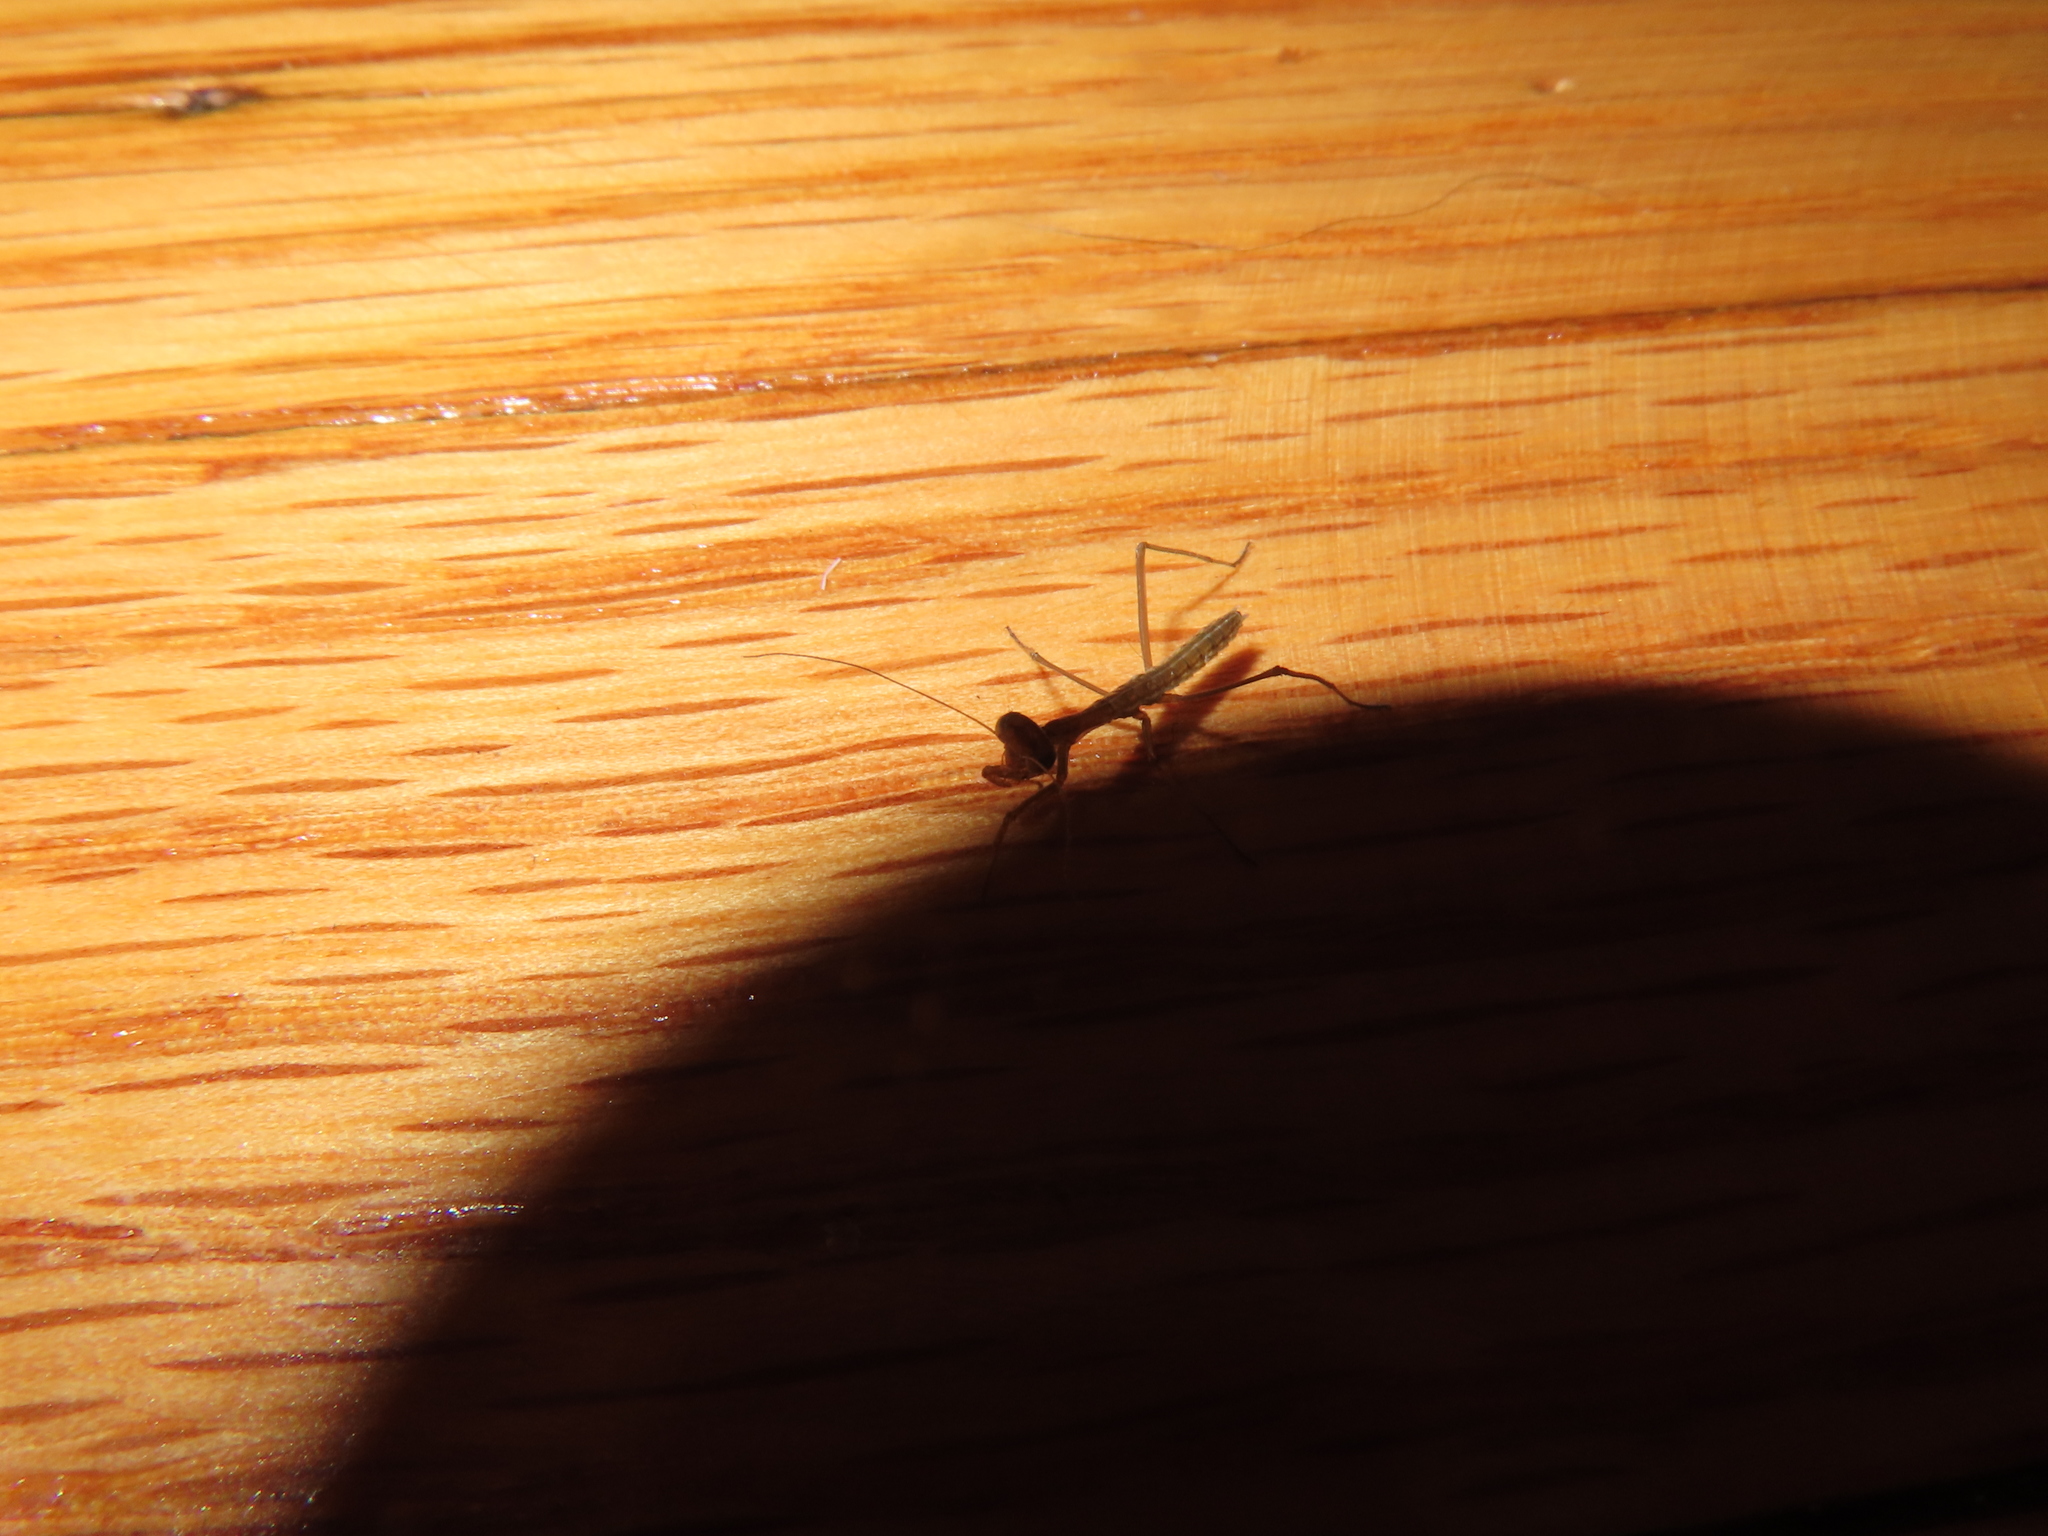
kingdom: Animalia
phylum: Arthropoda
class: Insecta
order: Mantodea
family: Mantidae
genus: Tenodera
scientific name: Tenodera sinensis
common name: Chinese mantis
